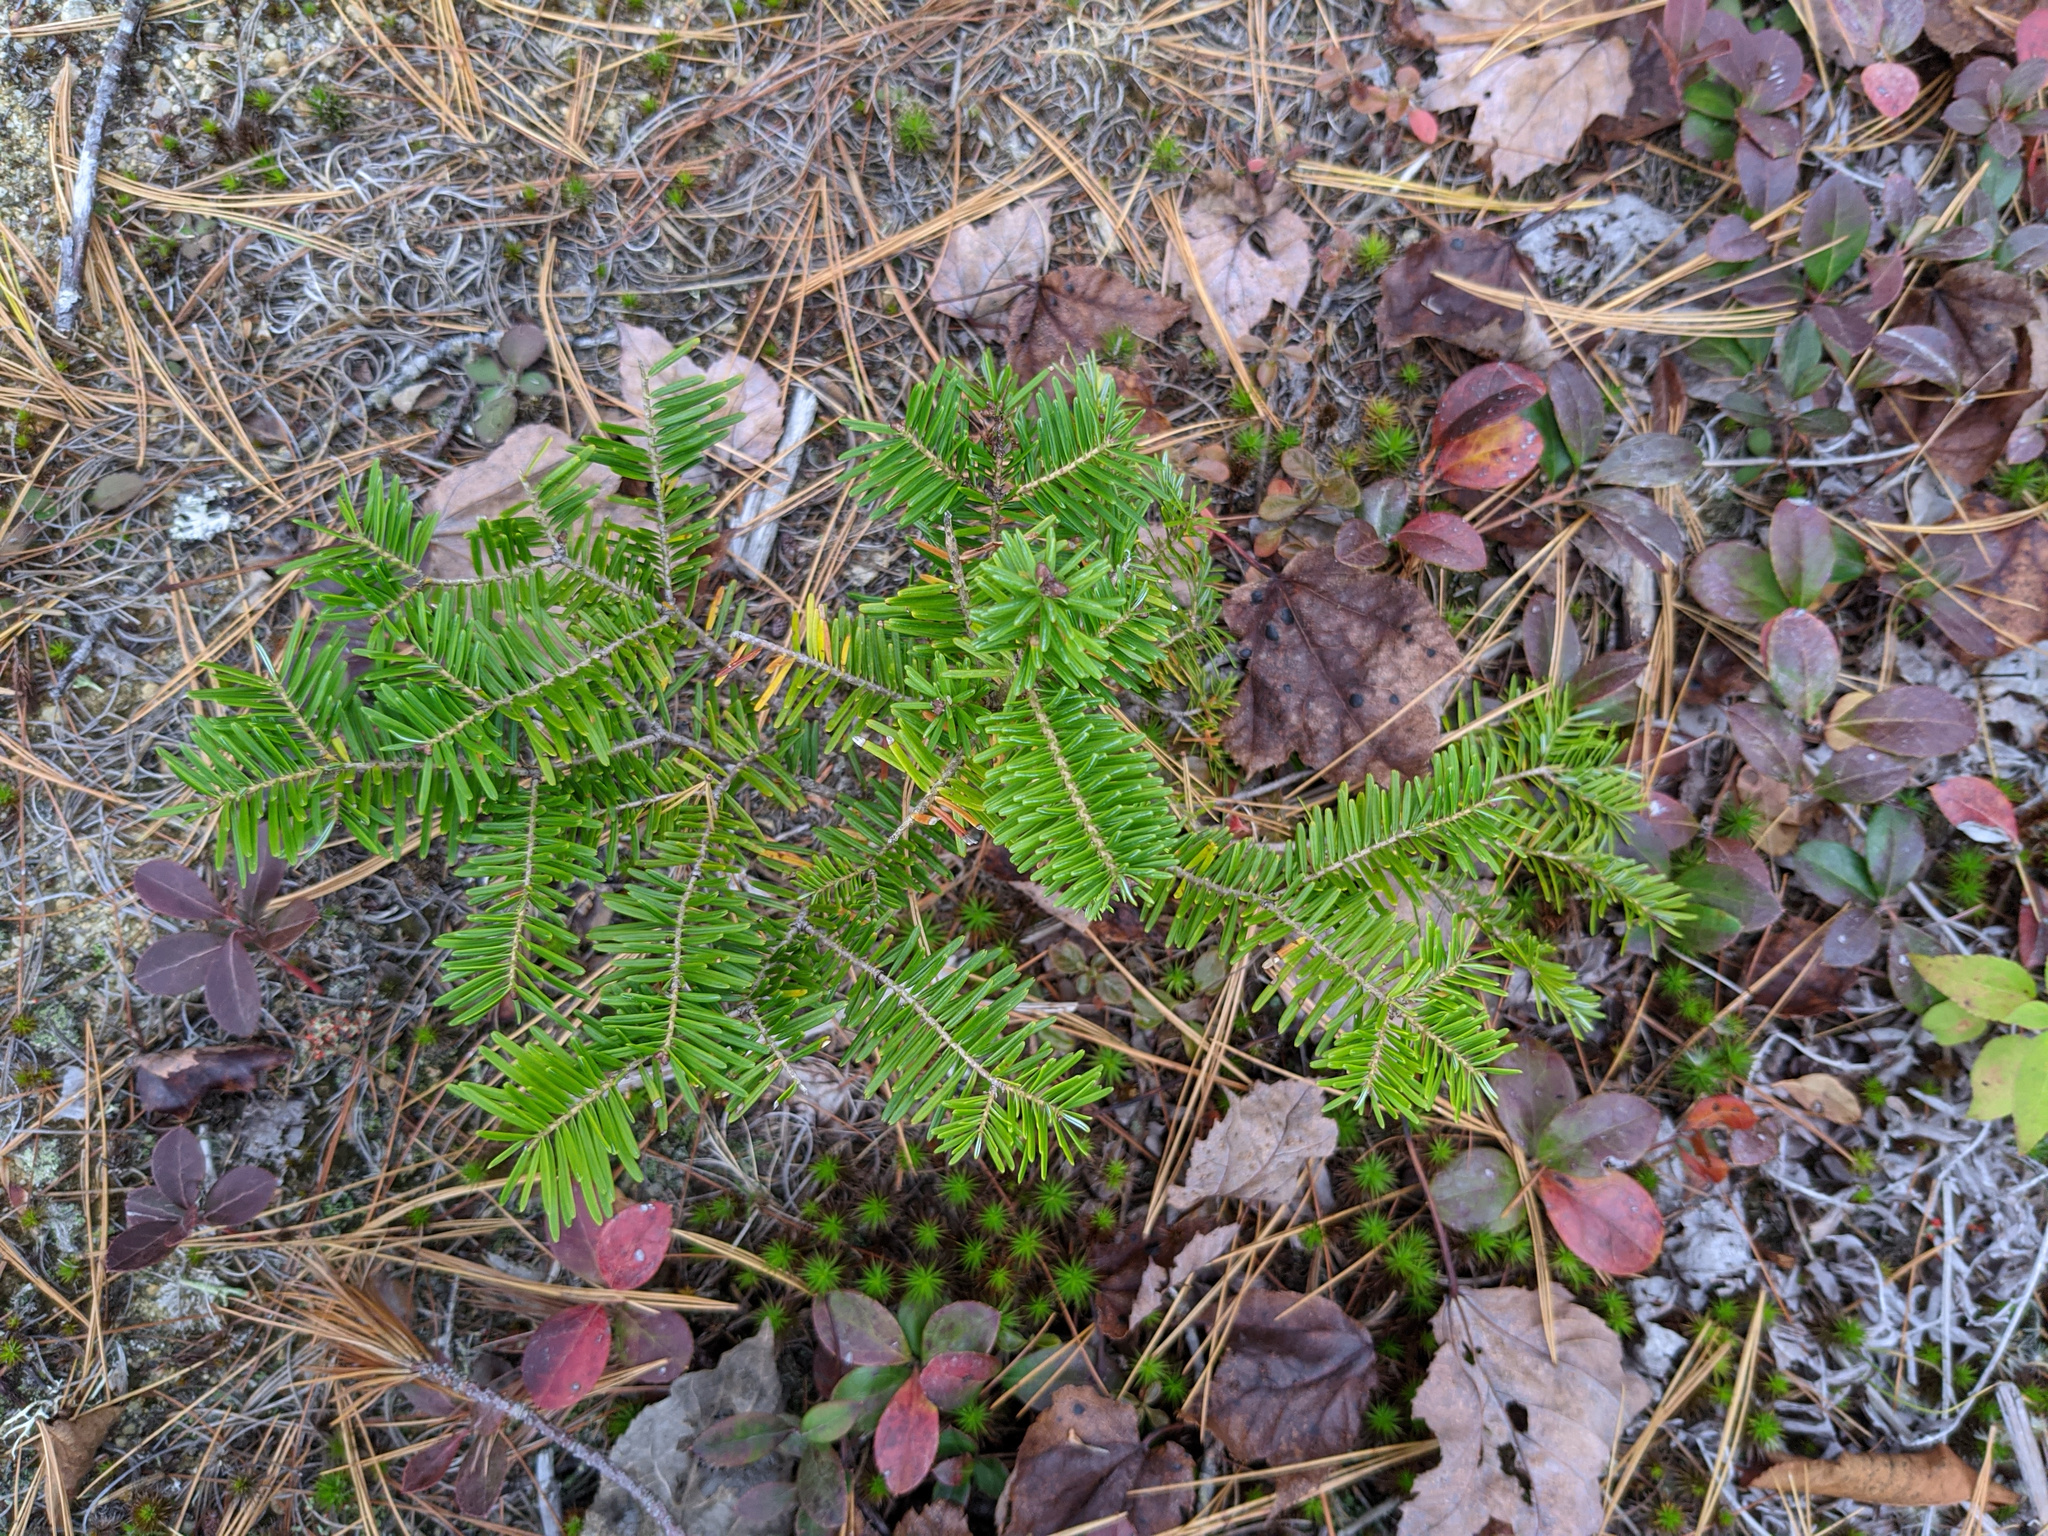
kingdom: Plantae
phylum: Tracheophyta
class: Pinopsida
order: Pinales
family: Pinaceae
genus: Abies
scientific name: Abies balsamea
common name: Balsam fir
